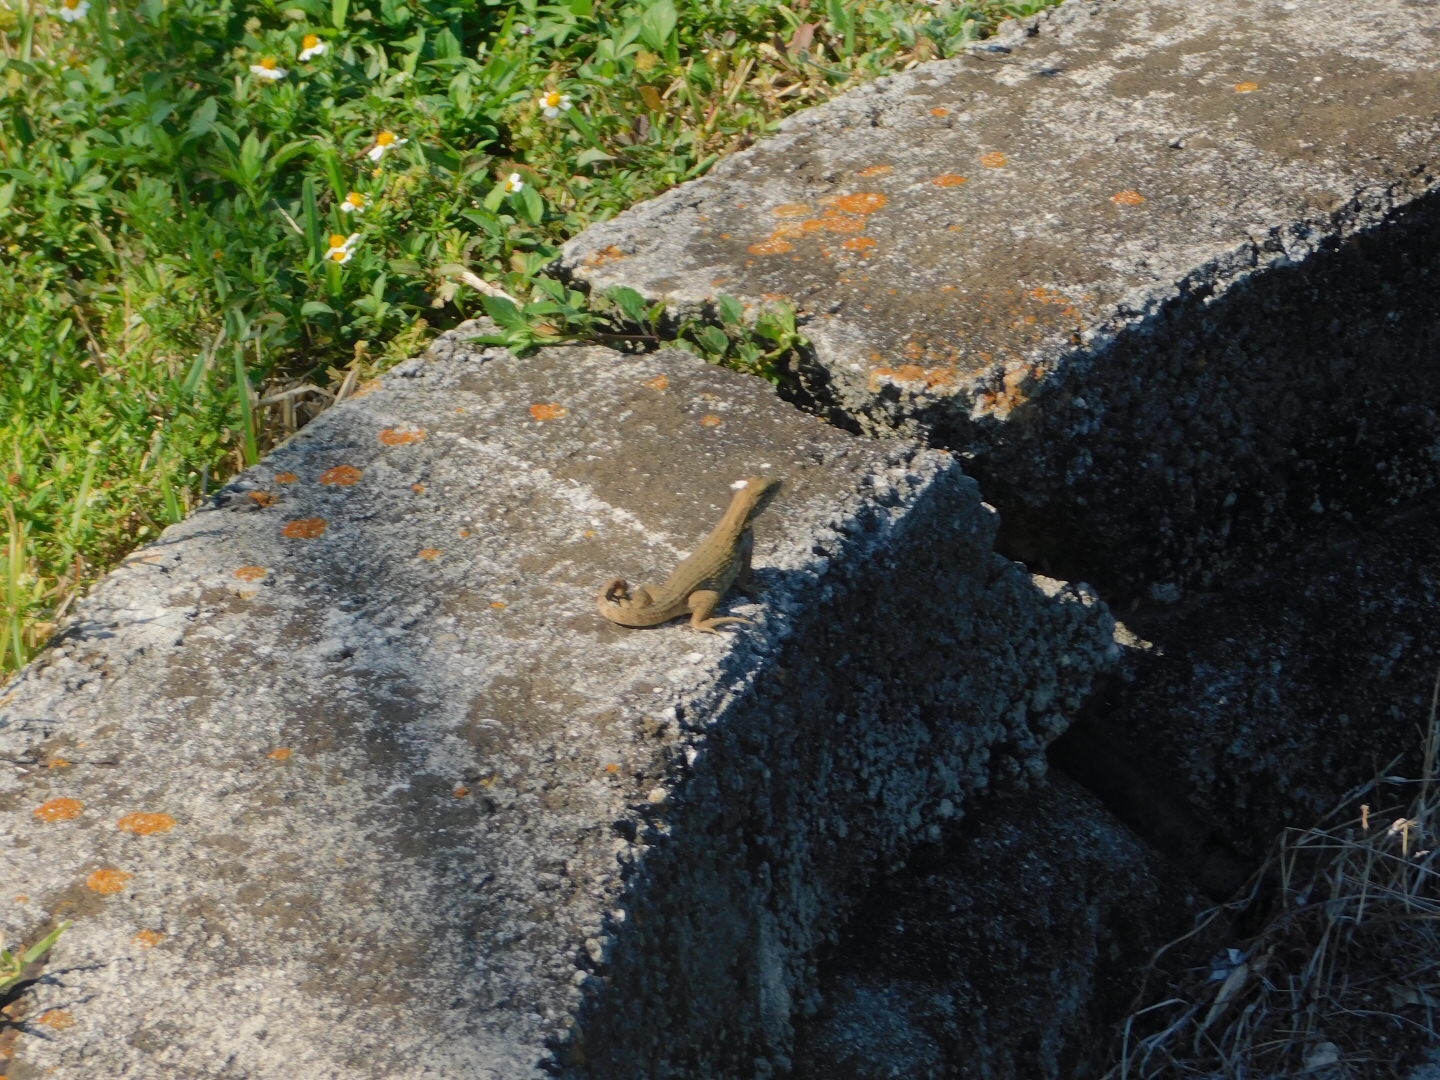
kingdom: Animalia
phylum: Chordata
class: Squamata
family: Leiocephalidae
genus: Leiocephalus
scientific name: Leiocephalus carinatus
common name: Northern curly-tailed lizard
